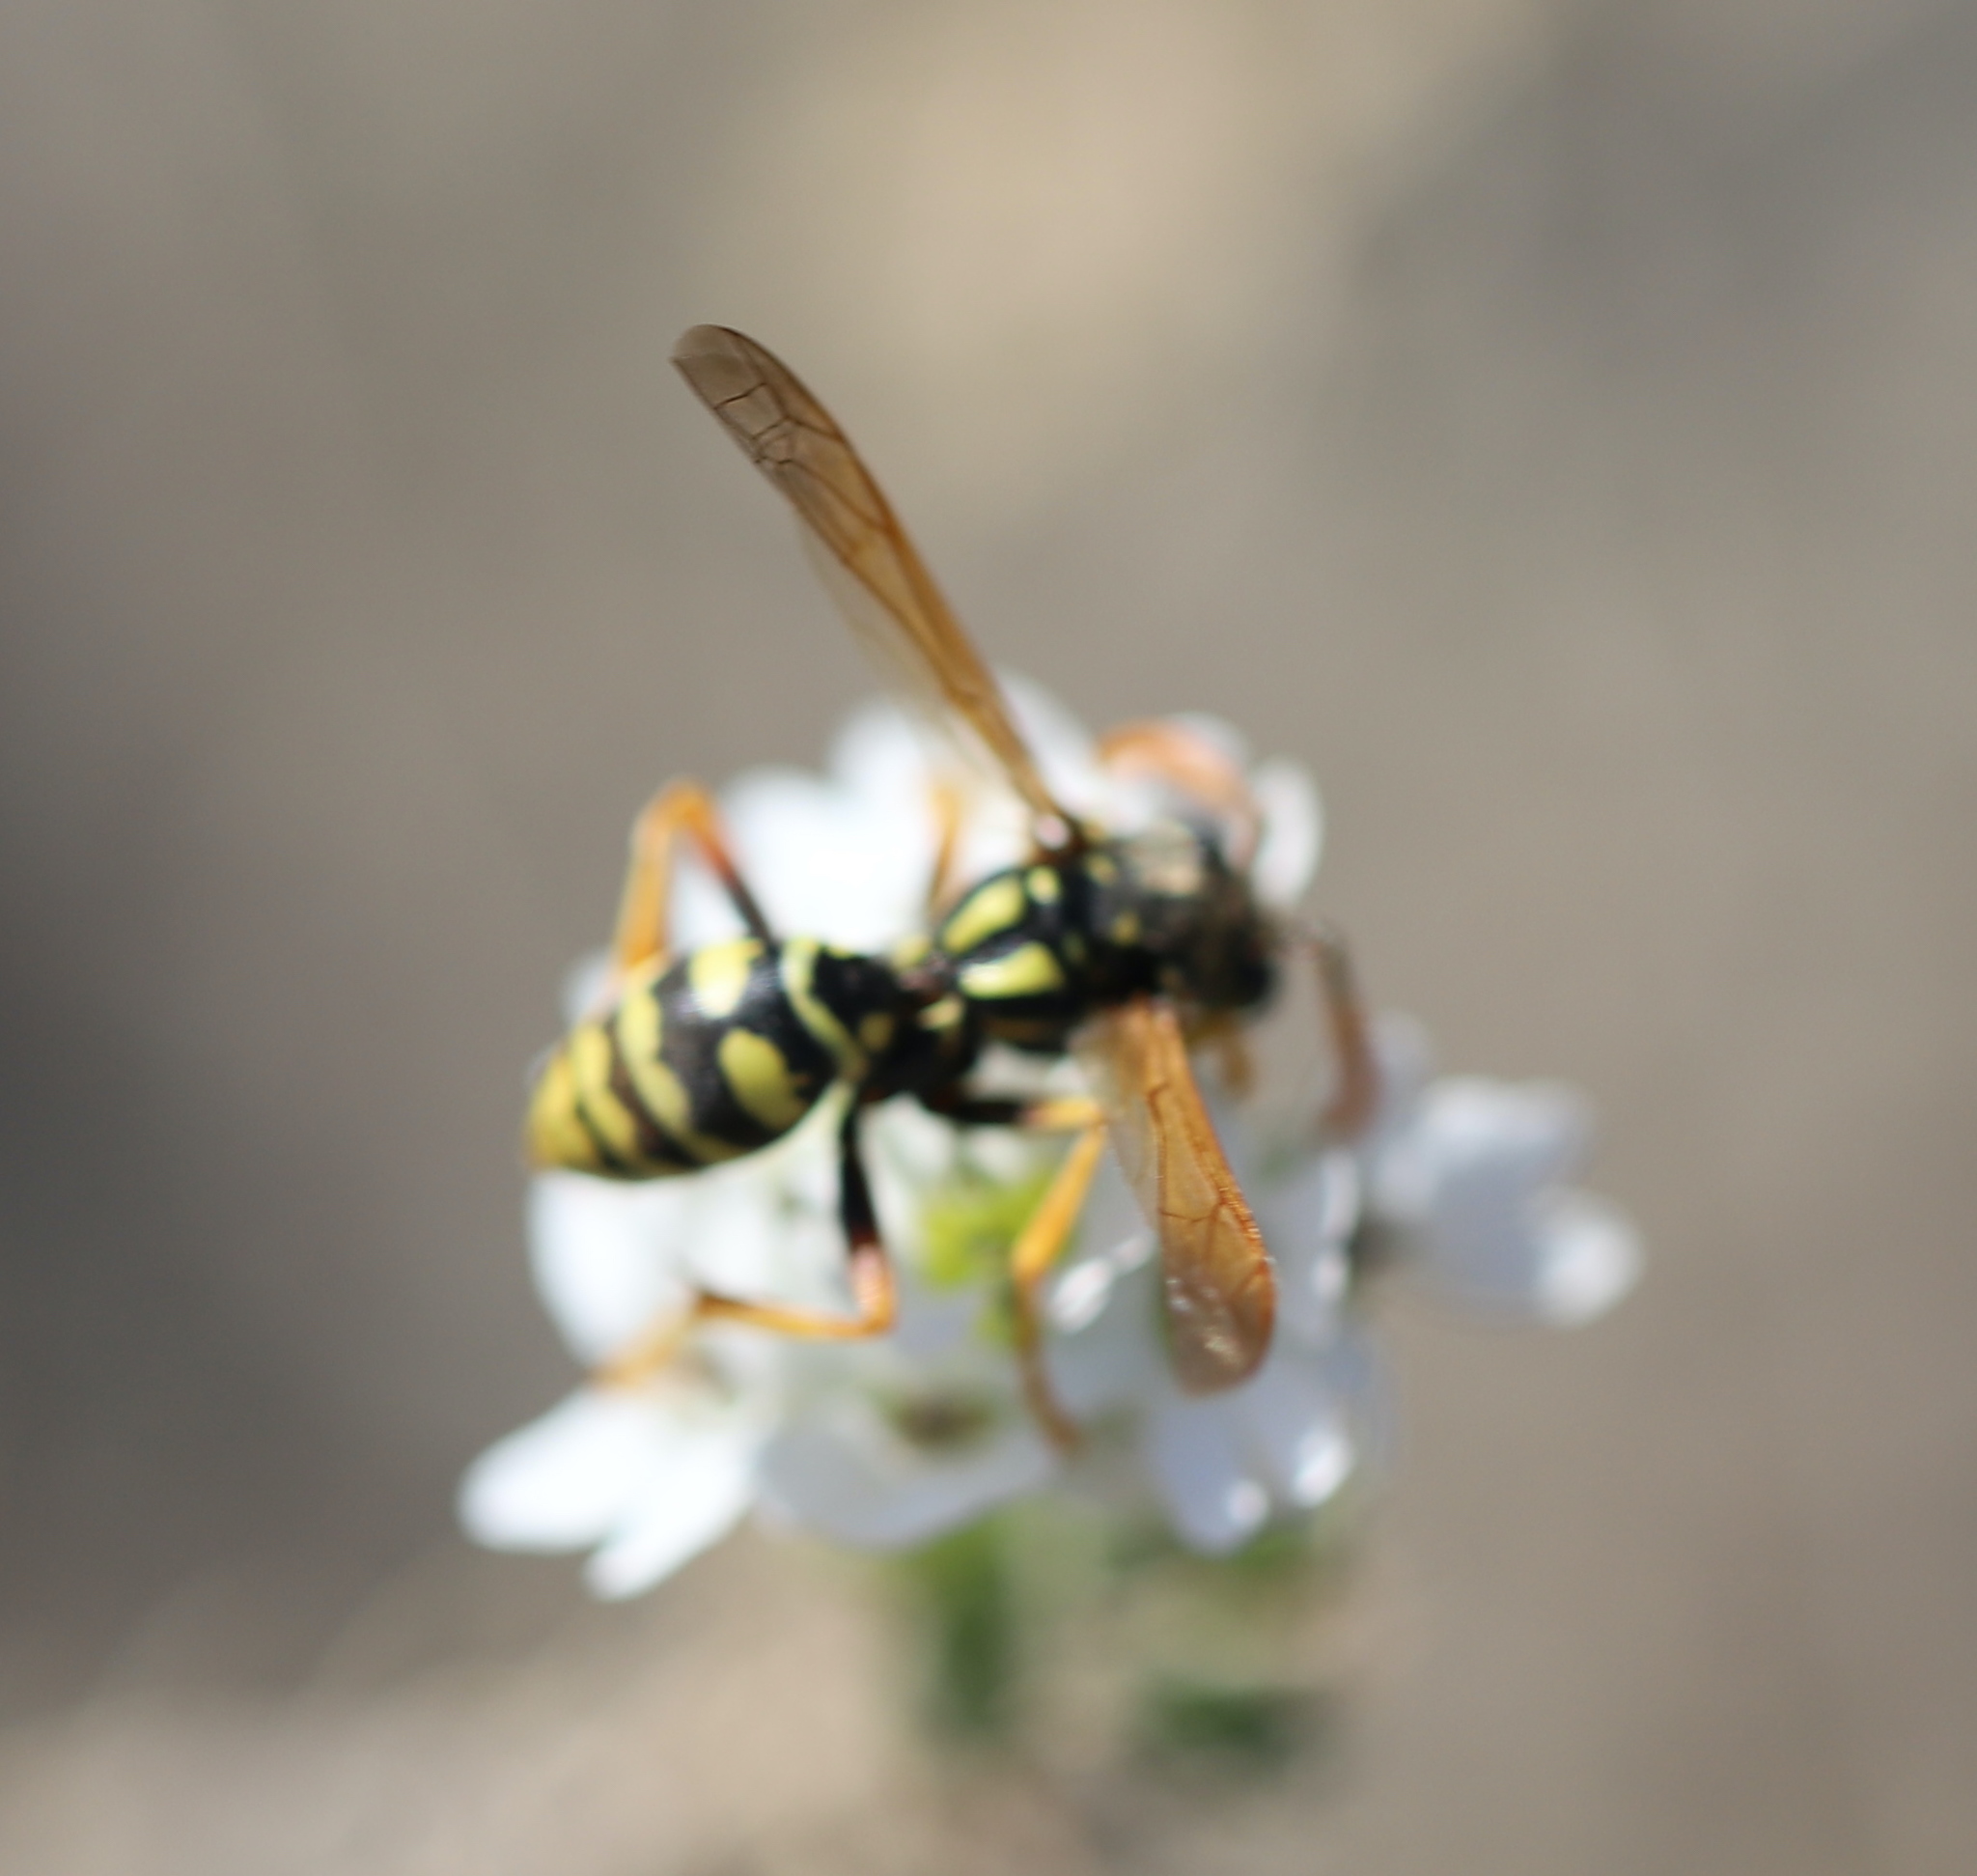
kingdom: Animalia
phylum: Arthropoda
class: Insecta
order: Hymenoptera
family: Eumenidae
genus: Polistes
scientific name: Polistes dominula
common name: Paper wasp
